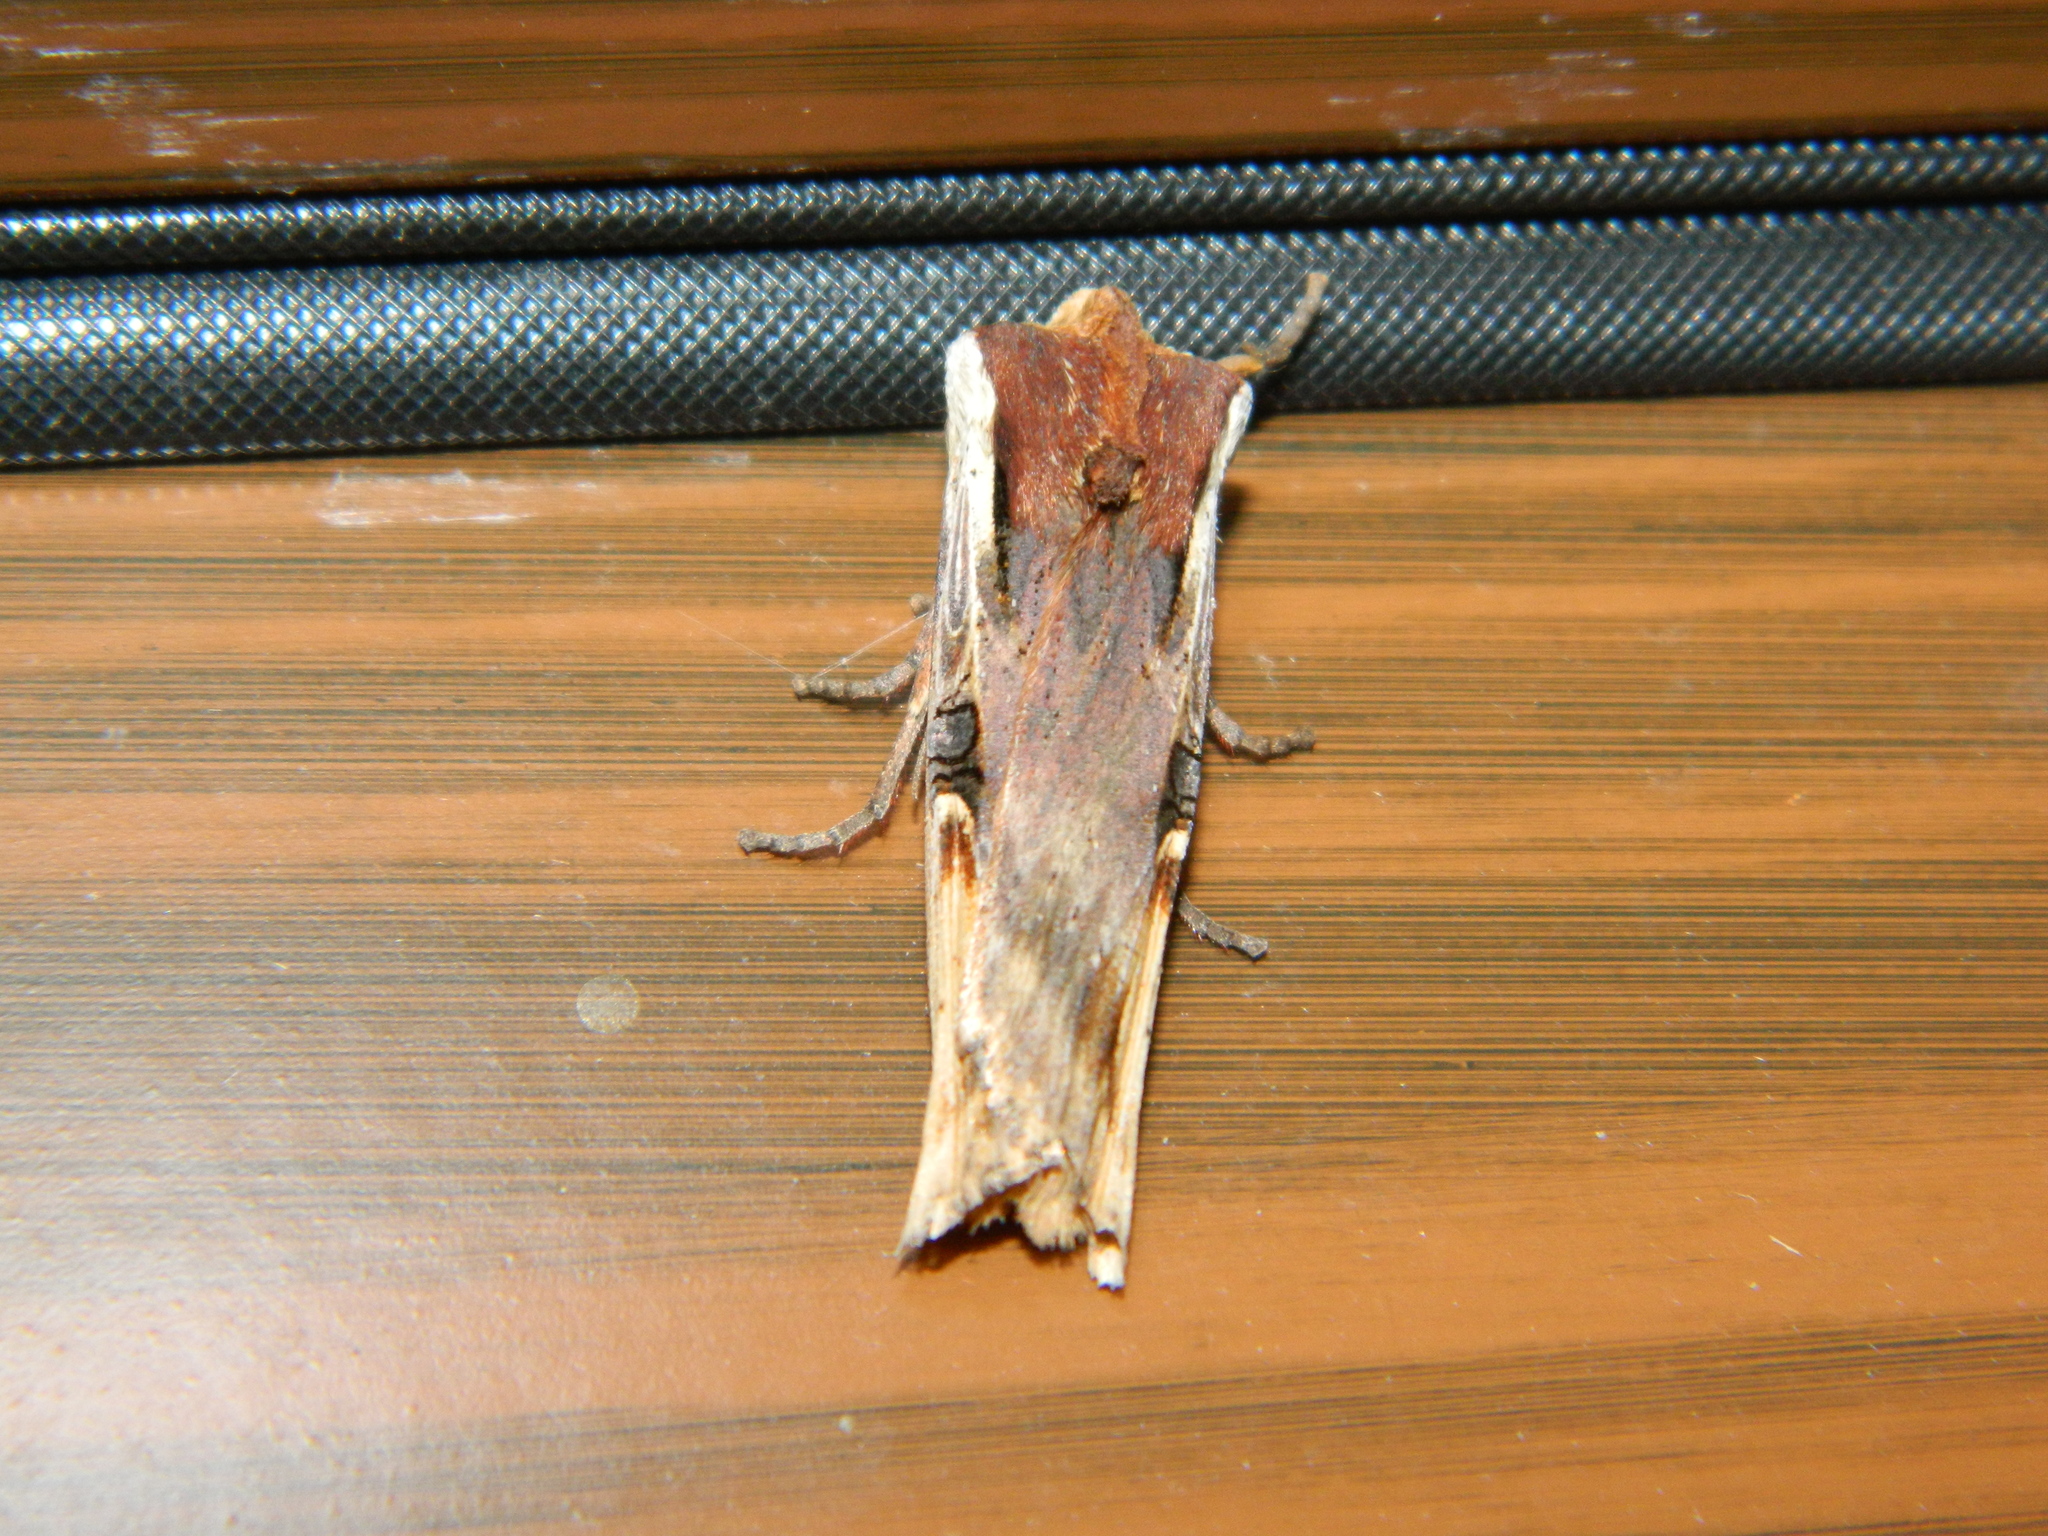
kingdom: Animalia
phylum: Arthropoda
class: Insecta
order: Lepidoptera
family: Noctuidae
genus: Xylena
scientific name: Xylena curvimacula
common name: Dot-and-dash swordgrass moth
